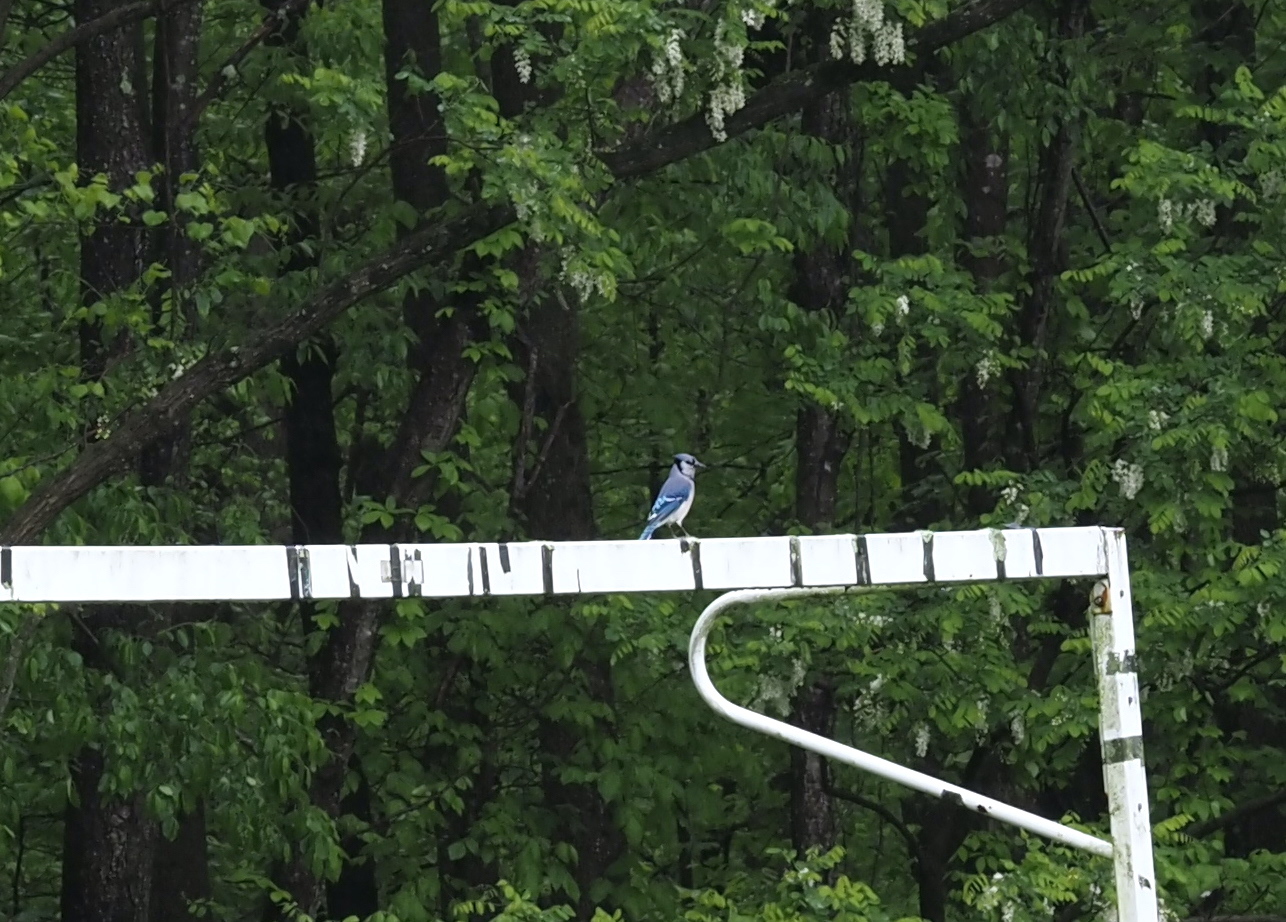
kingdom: Animalia
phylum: Chordata
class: Aves
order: Passeriformes
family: Corvidae
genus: Cyanocitta
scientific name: Cyanocitta cristata
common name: Blue jay
